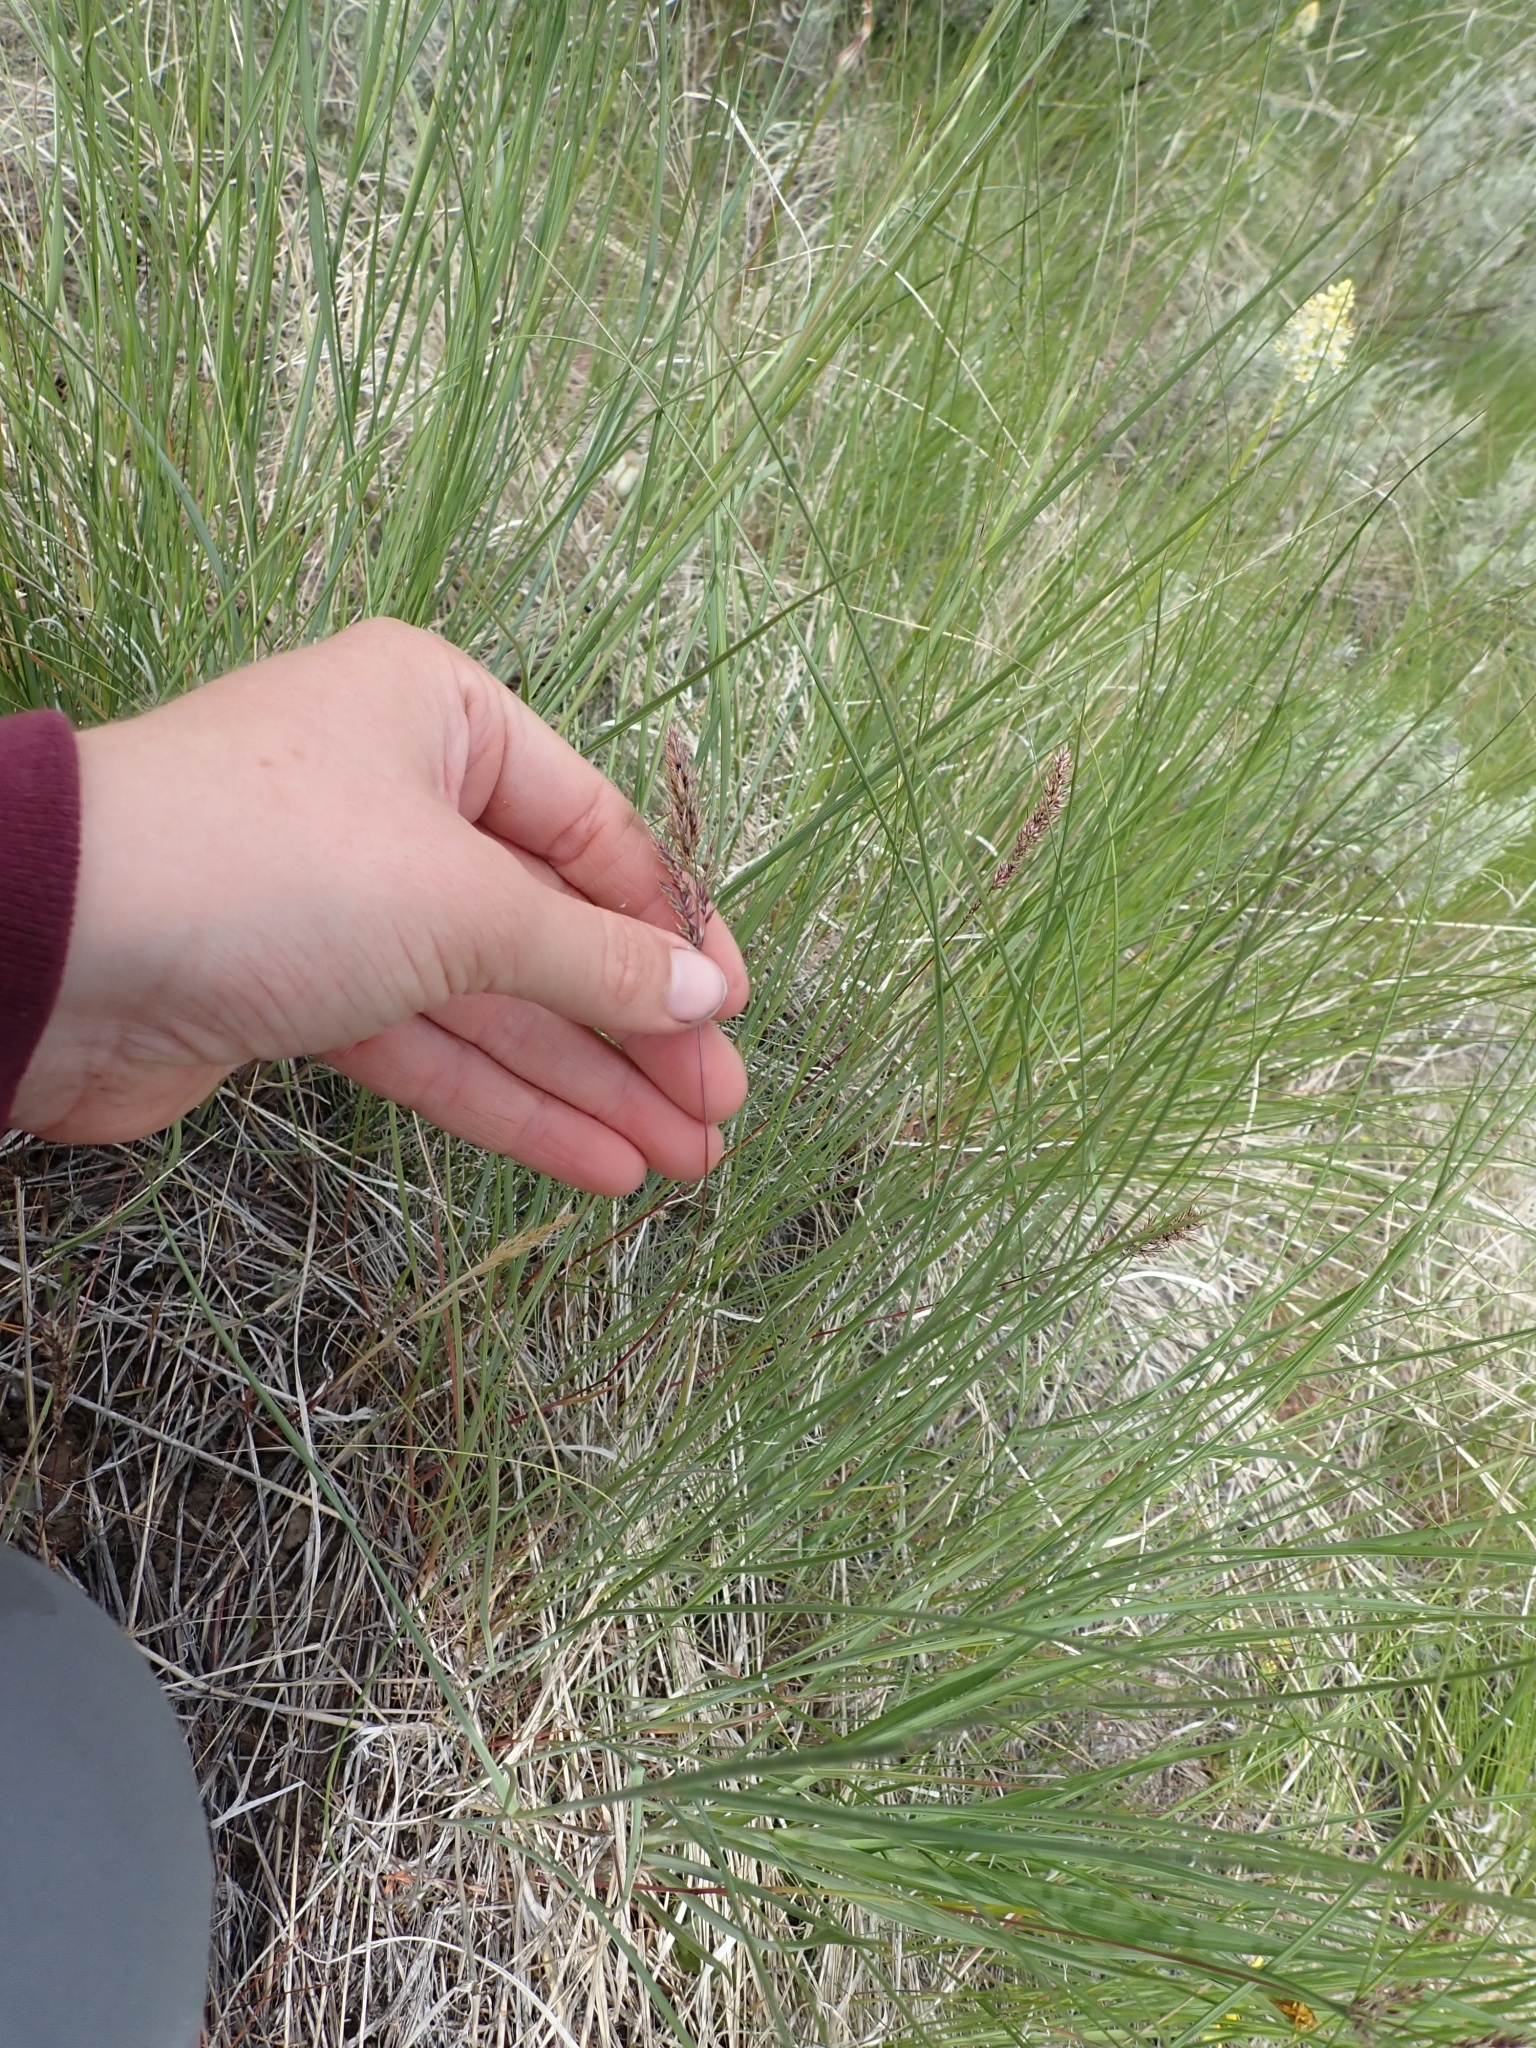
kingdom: Plantae
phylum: Tracheophyta
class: Liliopsida
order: Poales
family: Poaceae
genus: Poa
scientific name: Poa bulbosa
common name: Bulbous bluegrass
